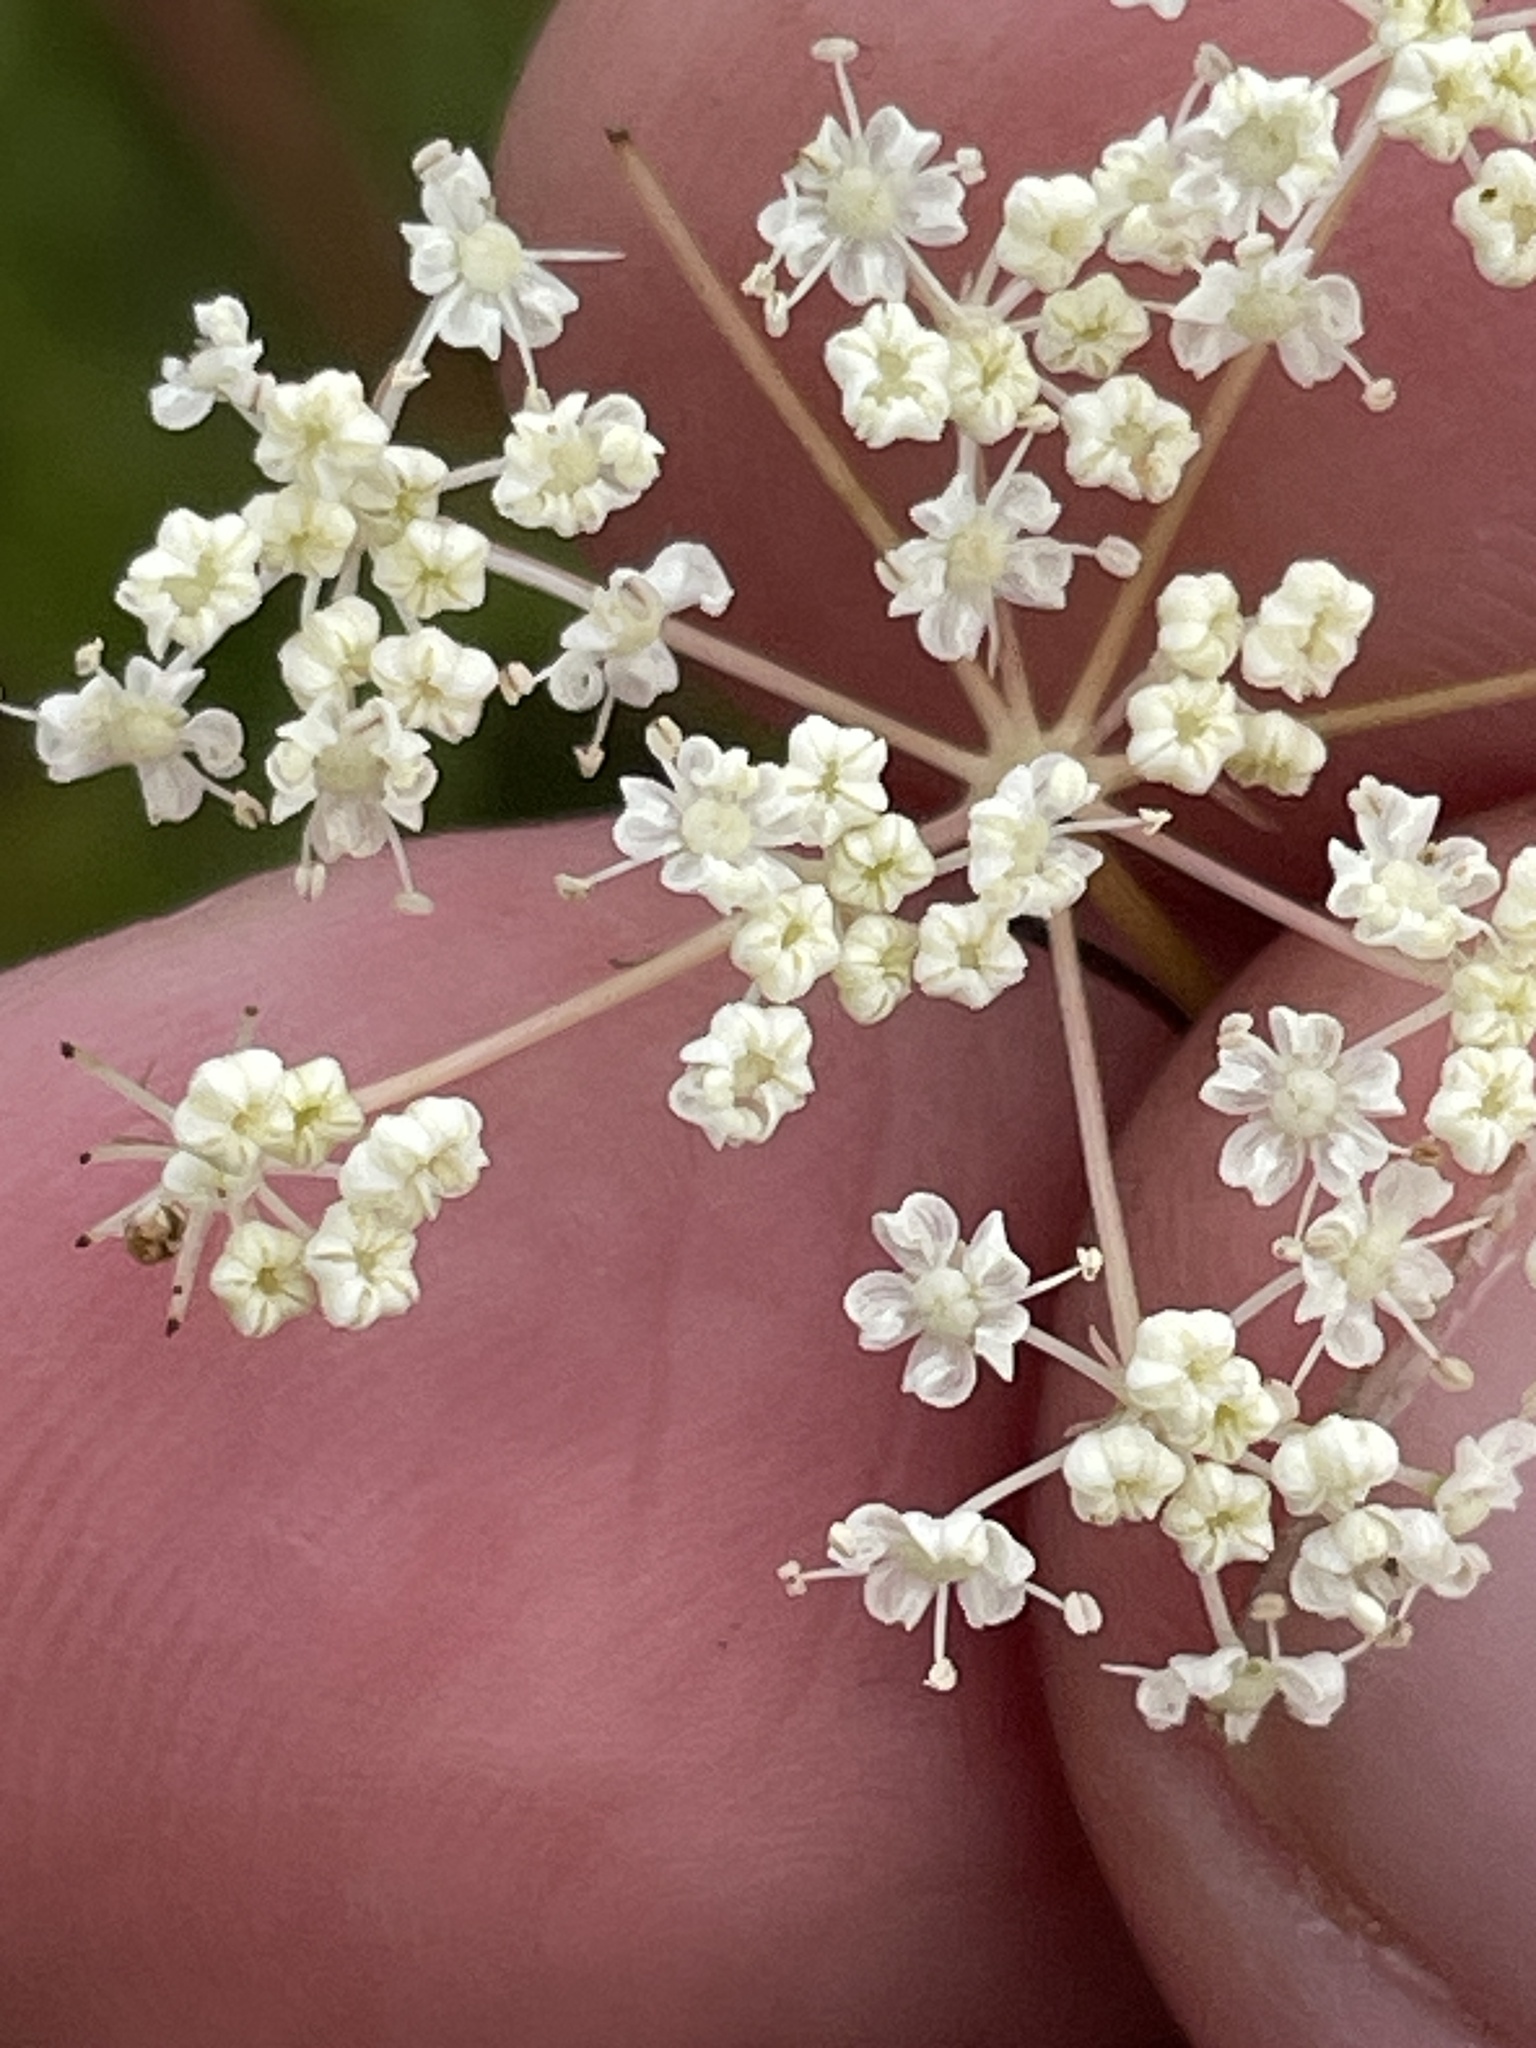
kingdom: Plantae
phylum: Tracheophyta
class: Magnoliopsida
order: Apiales
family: Apiaceae
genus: Perideridia
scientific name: Perideridia gairdneri
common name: False caraway
